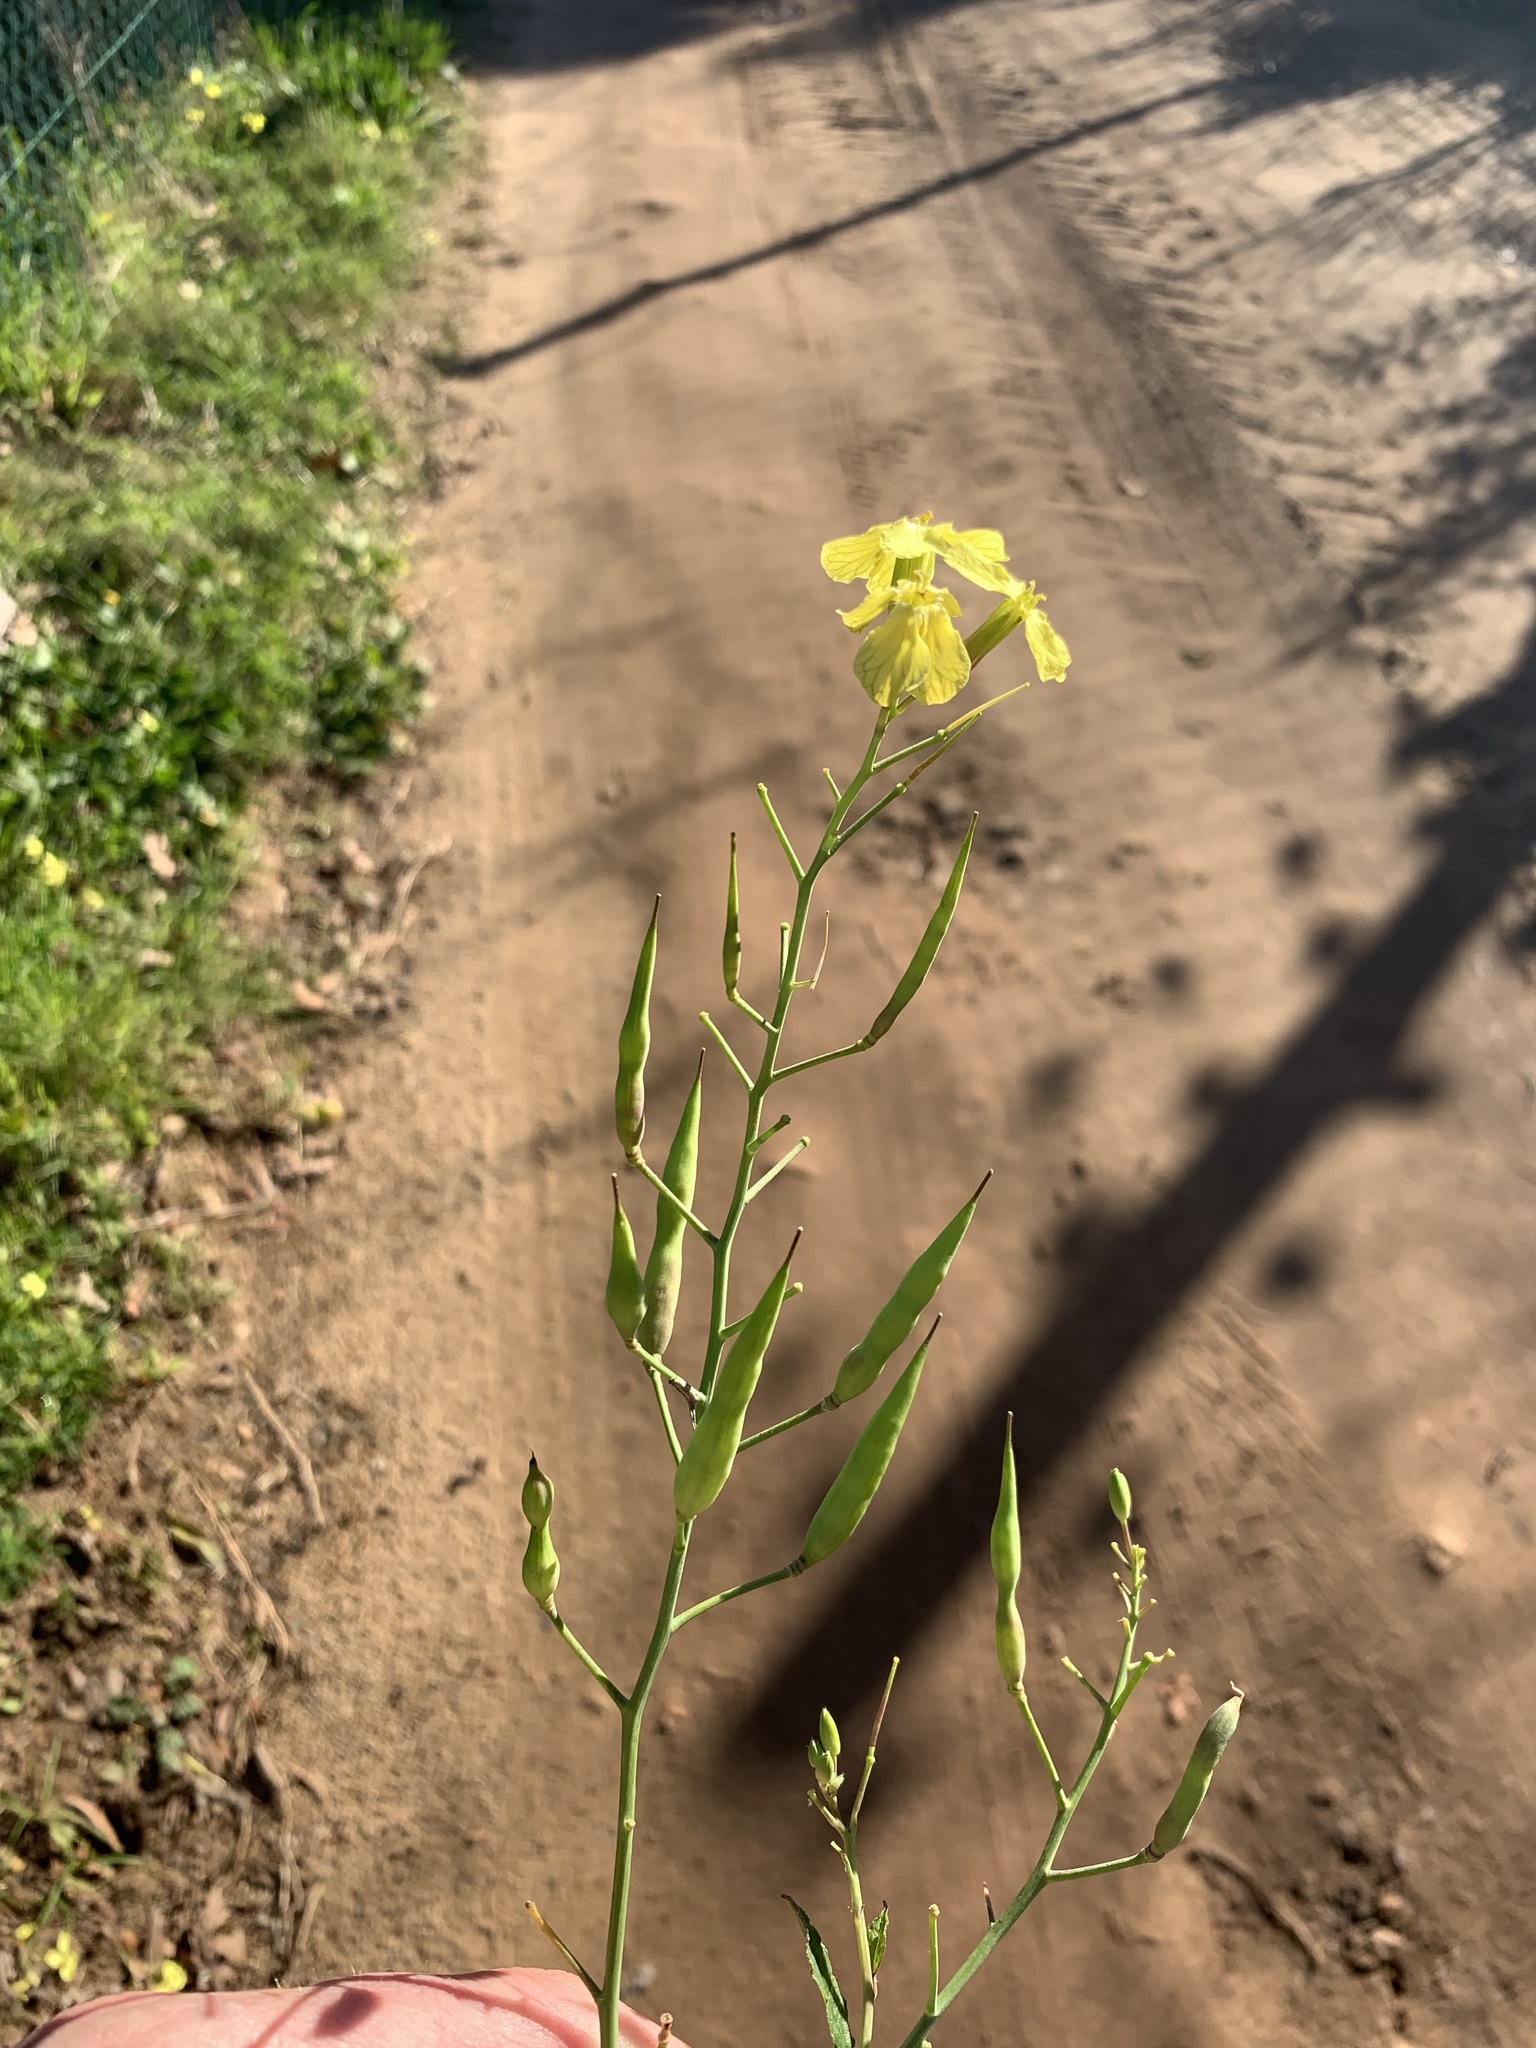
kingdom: Plantae
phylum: Tracheophyta
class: Magnoliopsida
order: Brassicales
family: Brassicaceae
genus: Raphanus
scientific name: Raphanus raphanistrum
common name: Wild radish
